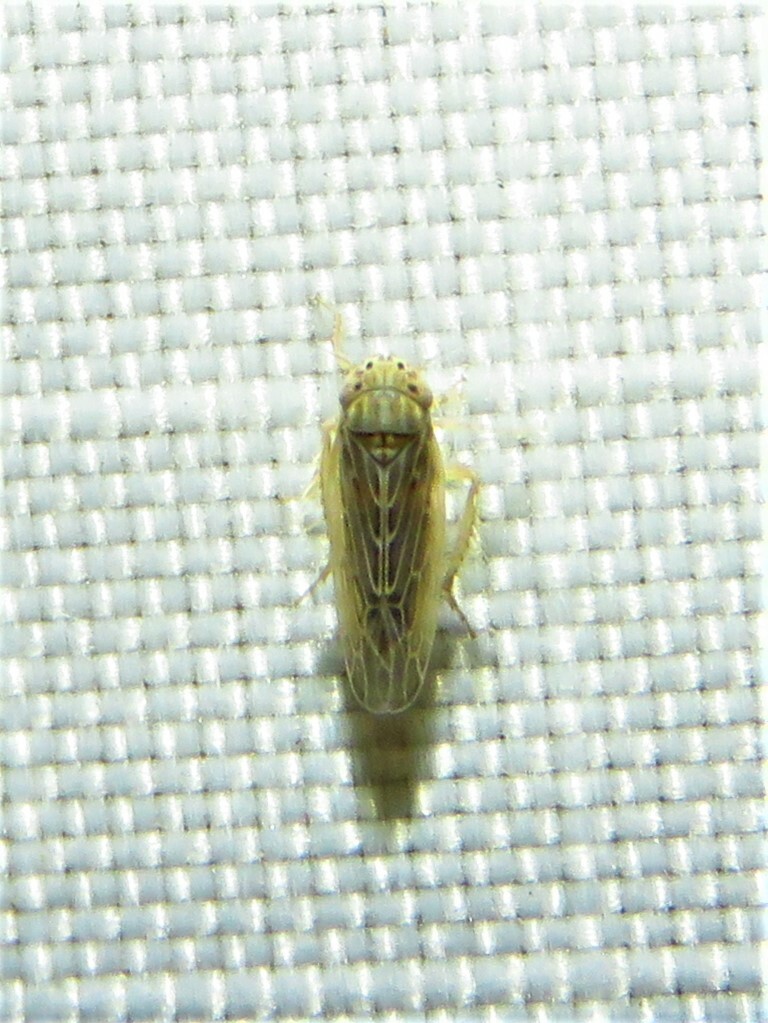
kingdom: Animalia
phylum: Arthropoda
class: Insecta
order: Hemiptera
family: Cicadellidae
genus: Graminella
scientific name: Graminella sonora
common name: Lesser lawn leafhopper
